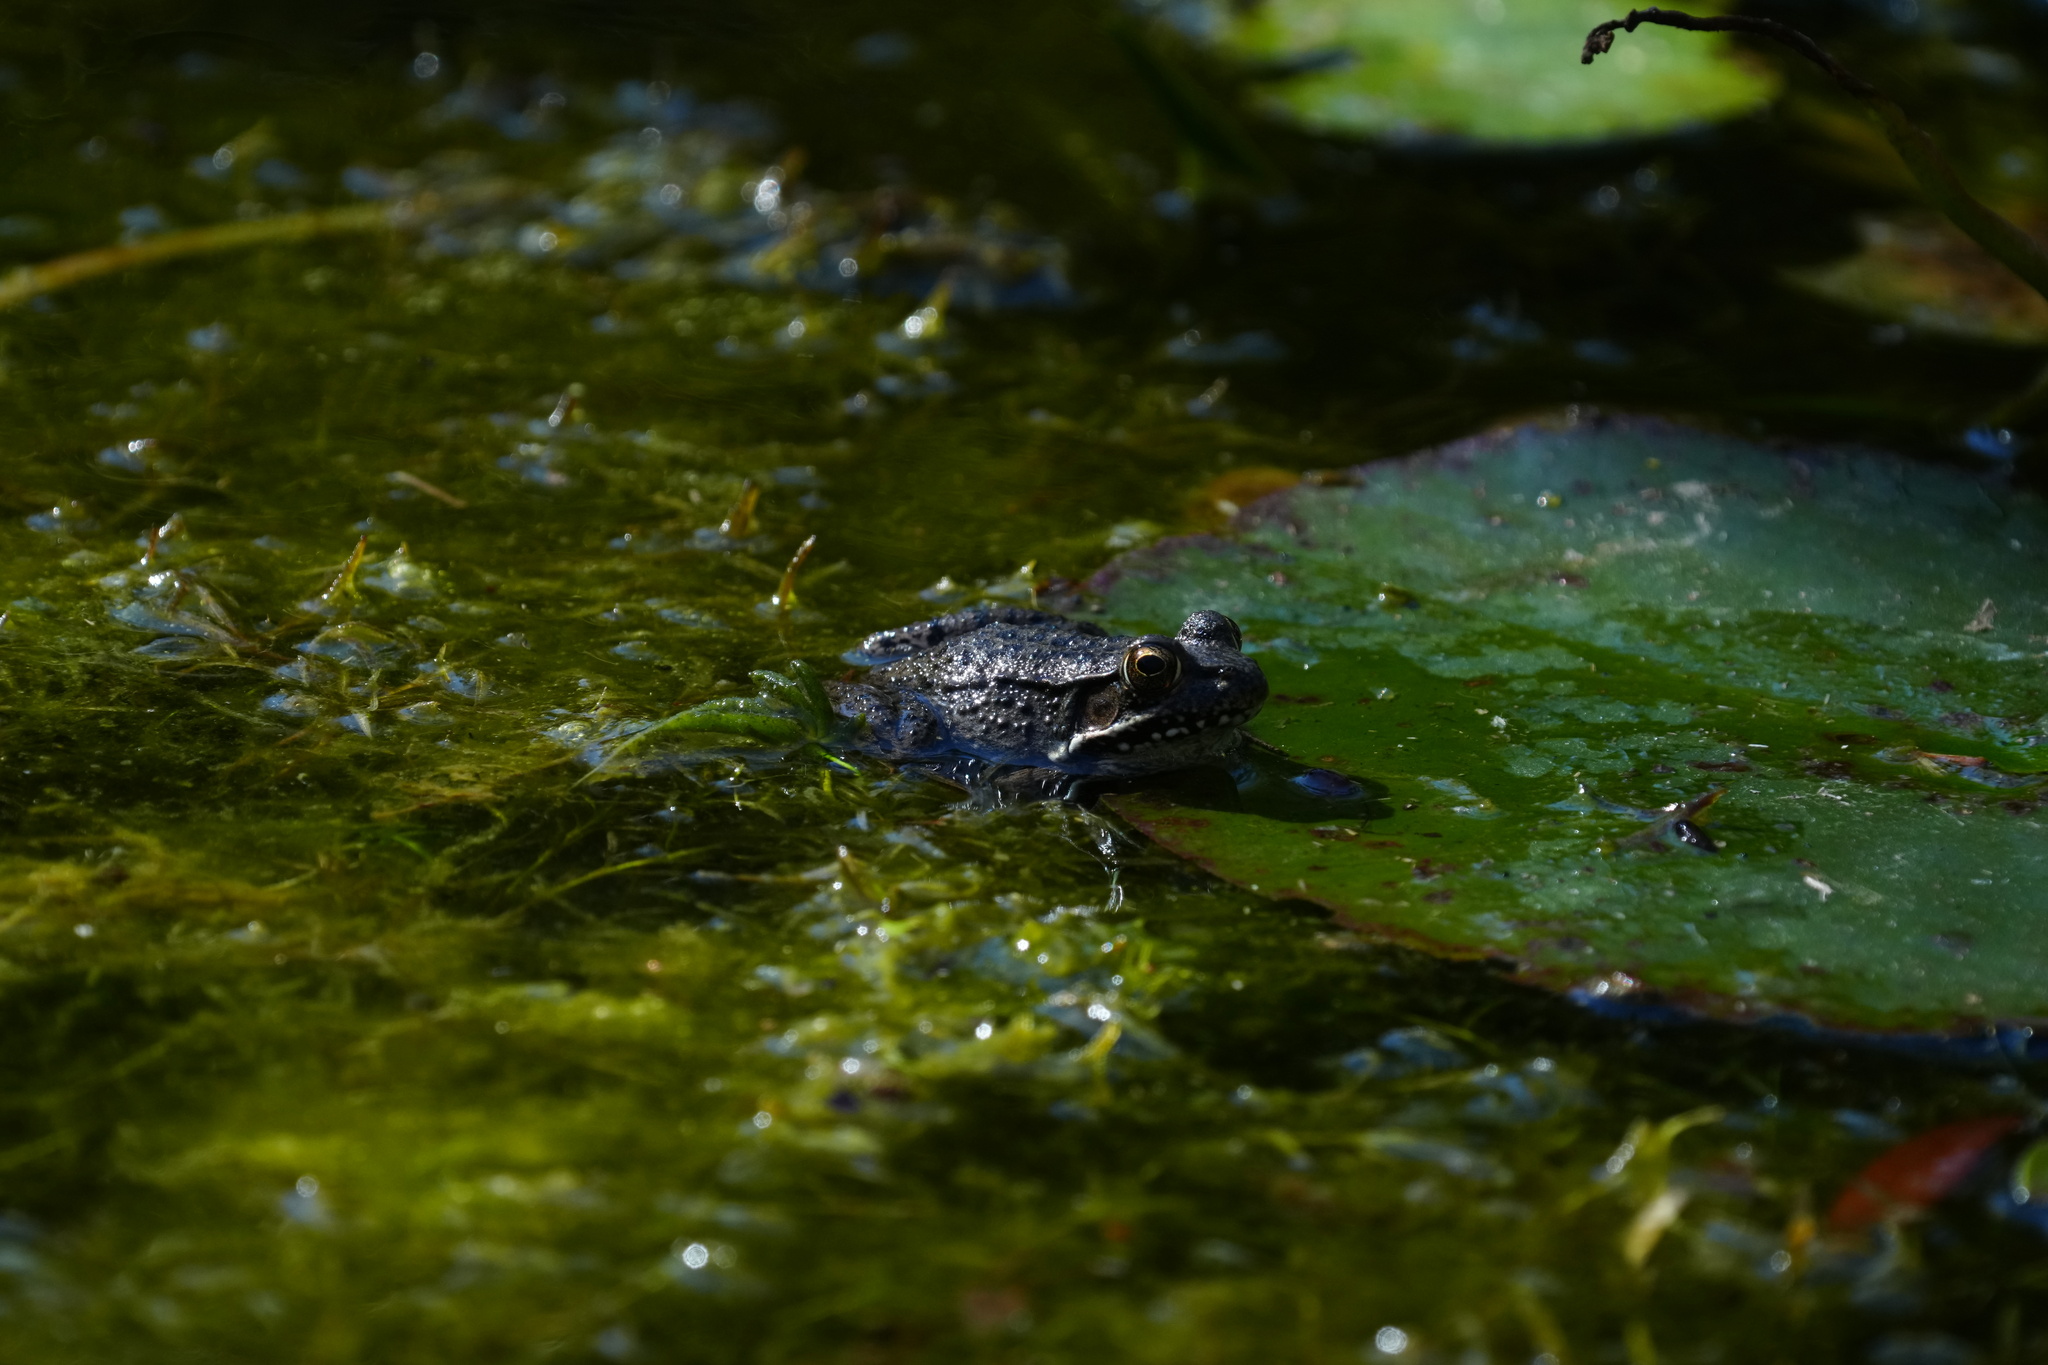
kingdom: Animalia
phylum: Chordata
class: Amphibia
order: Anura
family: Ranidae
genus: Lithobates
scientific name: Lithobates clamitans
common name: Green frog
